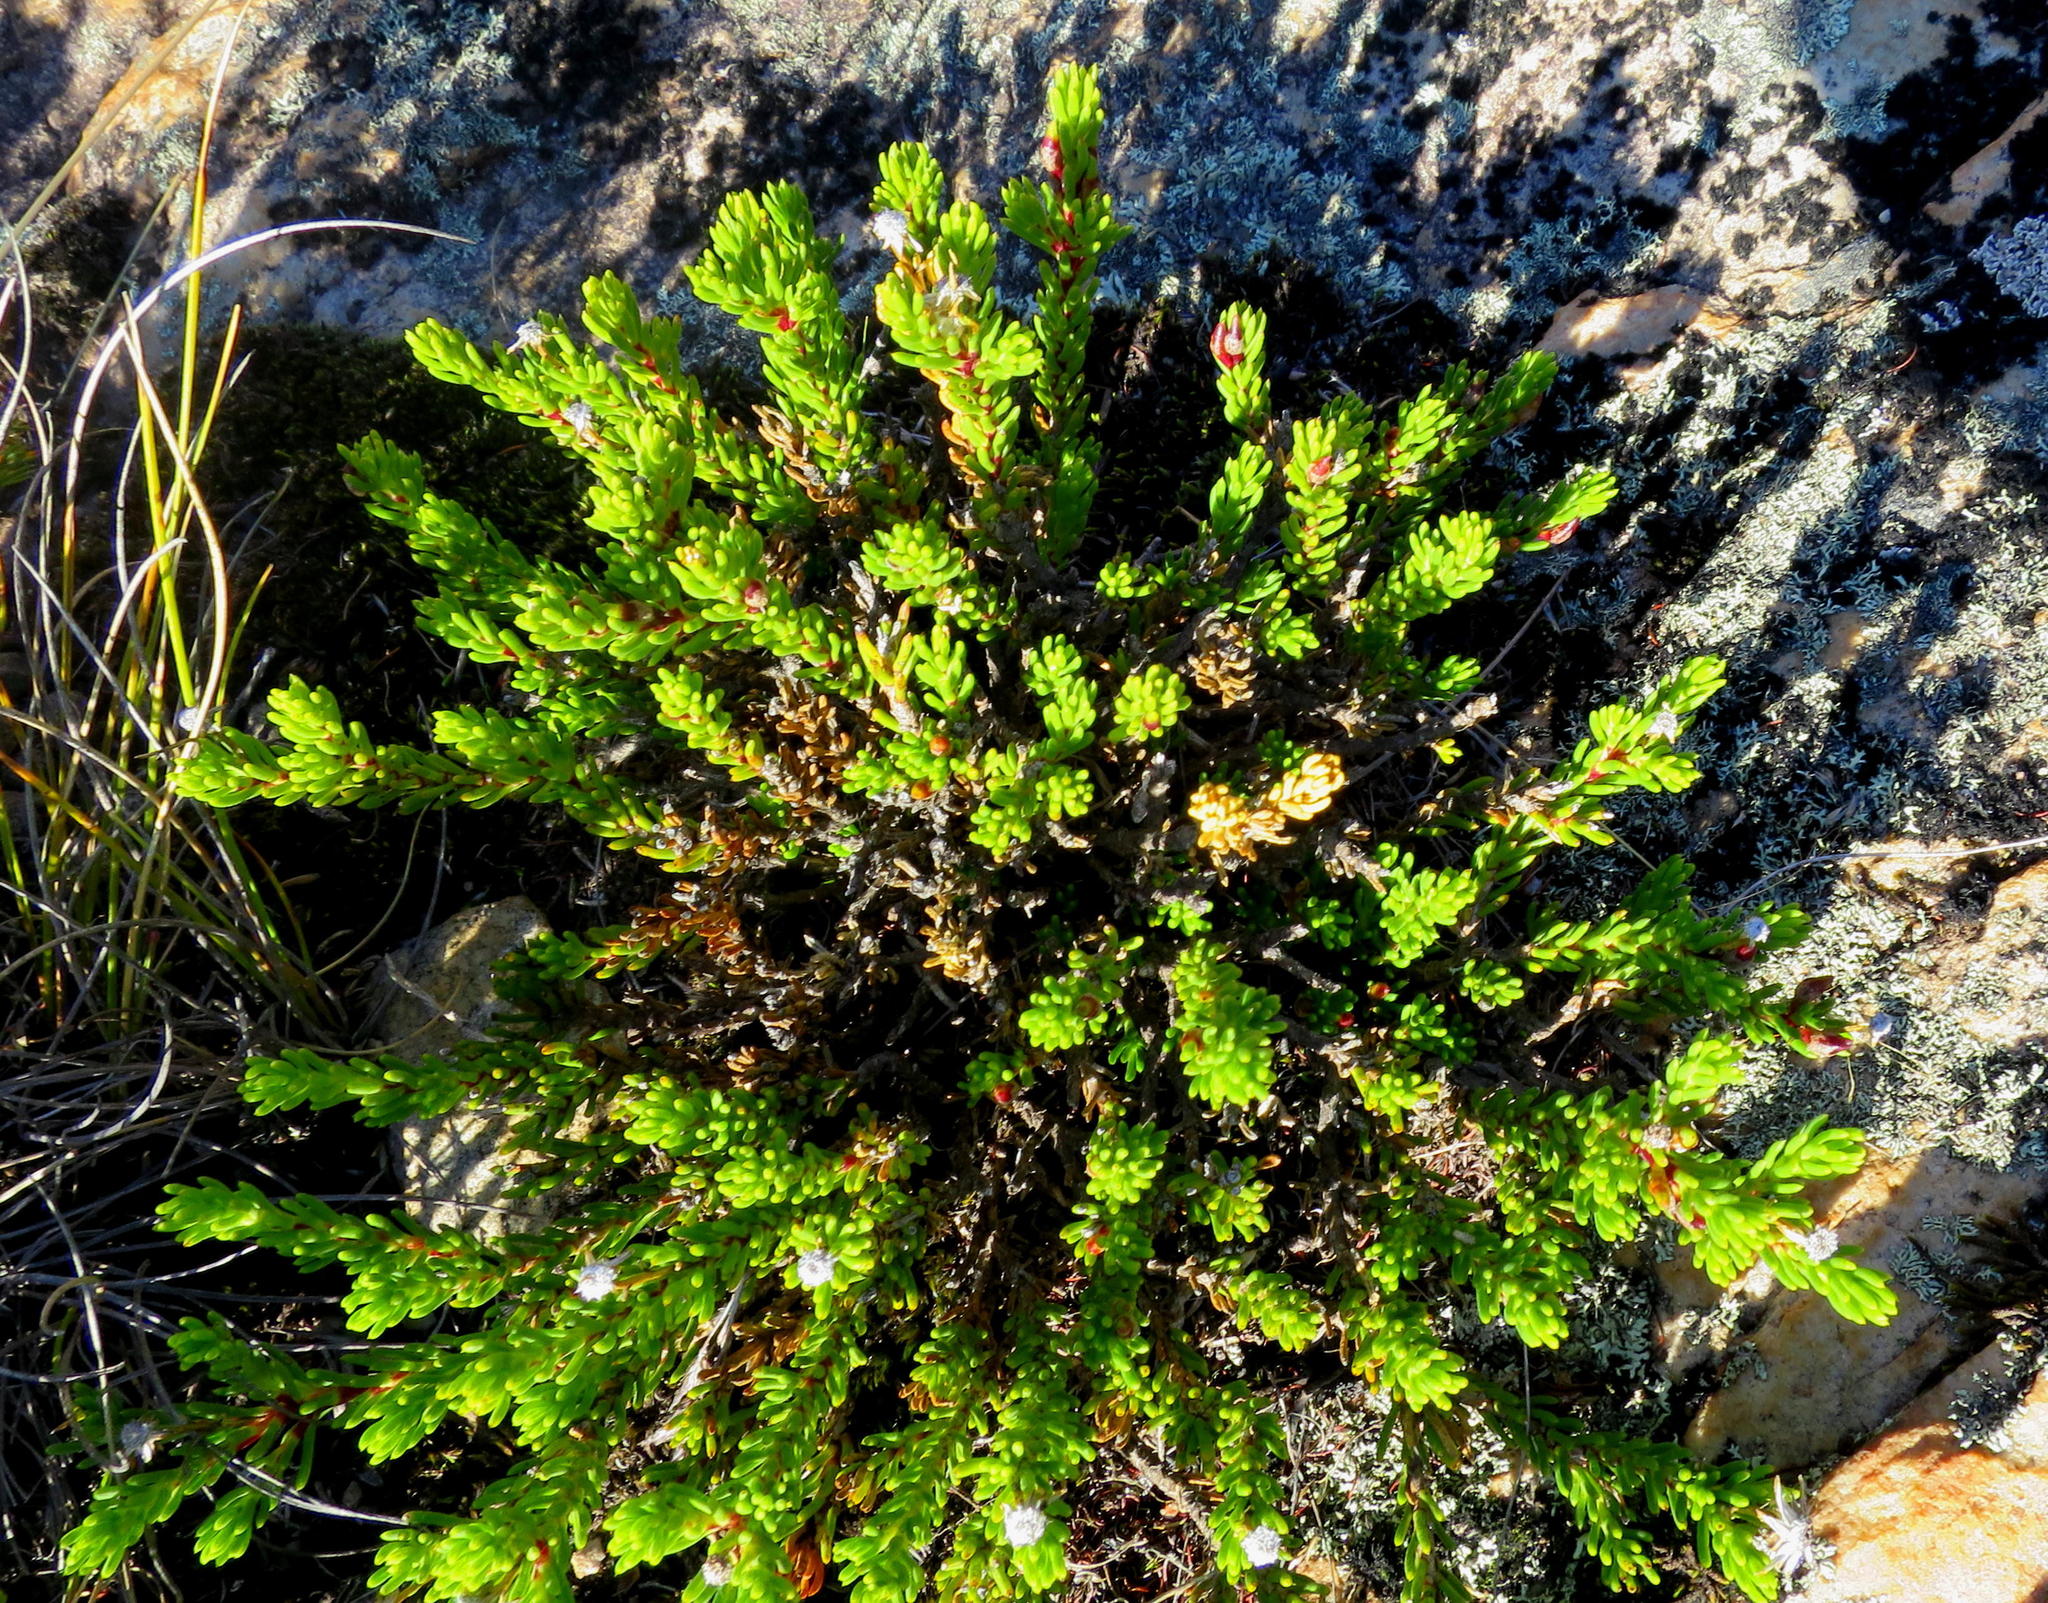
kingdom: Plantae
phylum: Tracheophyta
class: Magnoliopsida
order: Asterales
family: Asteraceae
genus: Felicia
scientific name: Felicia oleosa
